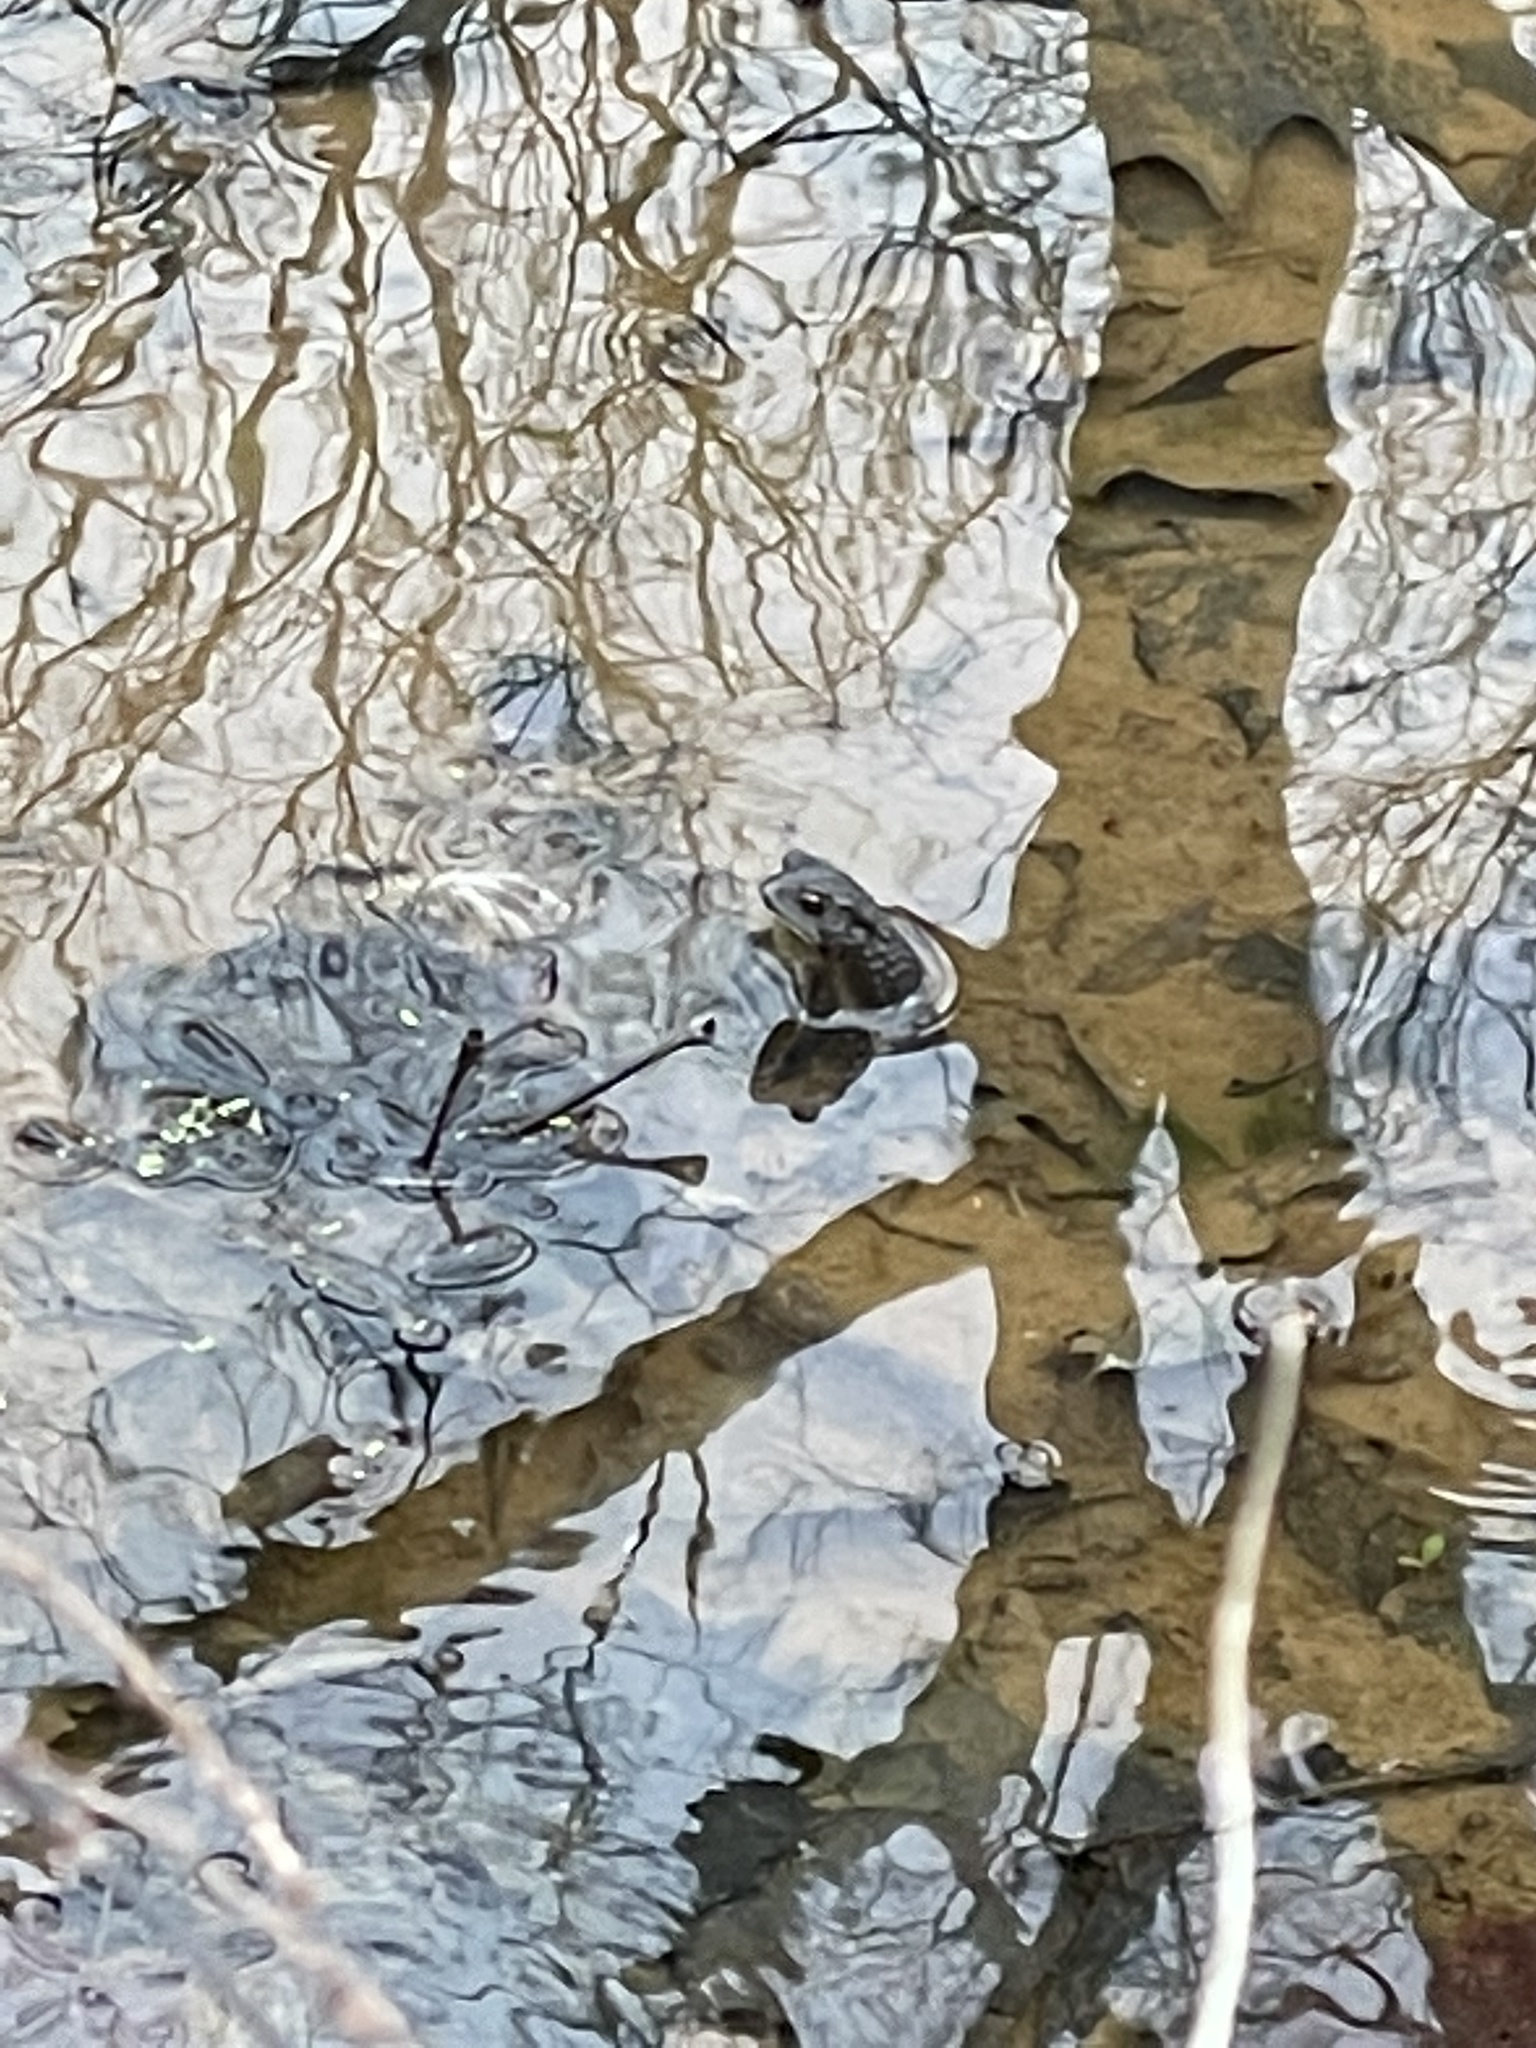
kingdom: Animalia
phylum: Chordata
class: Amphibia
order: Anura
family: Bufonidae
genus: Anaxyrus
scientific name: Anaxyrus americanus
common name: American toad
